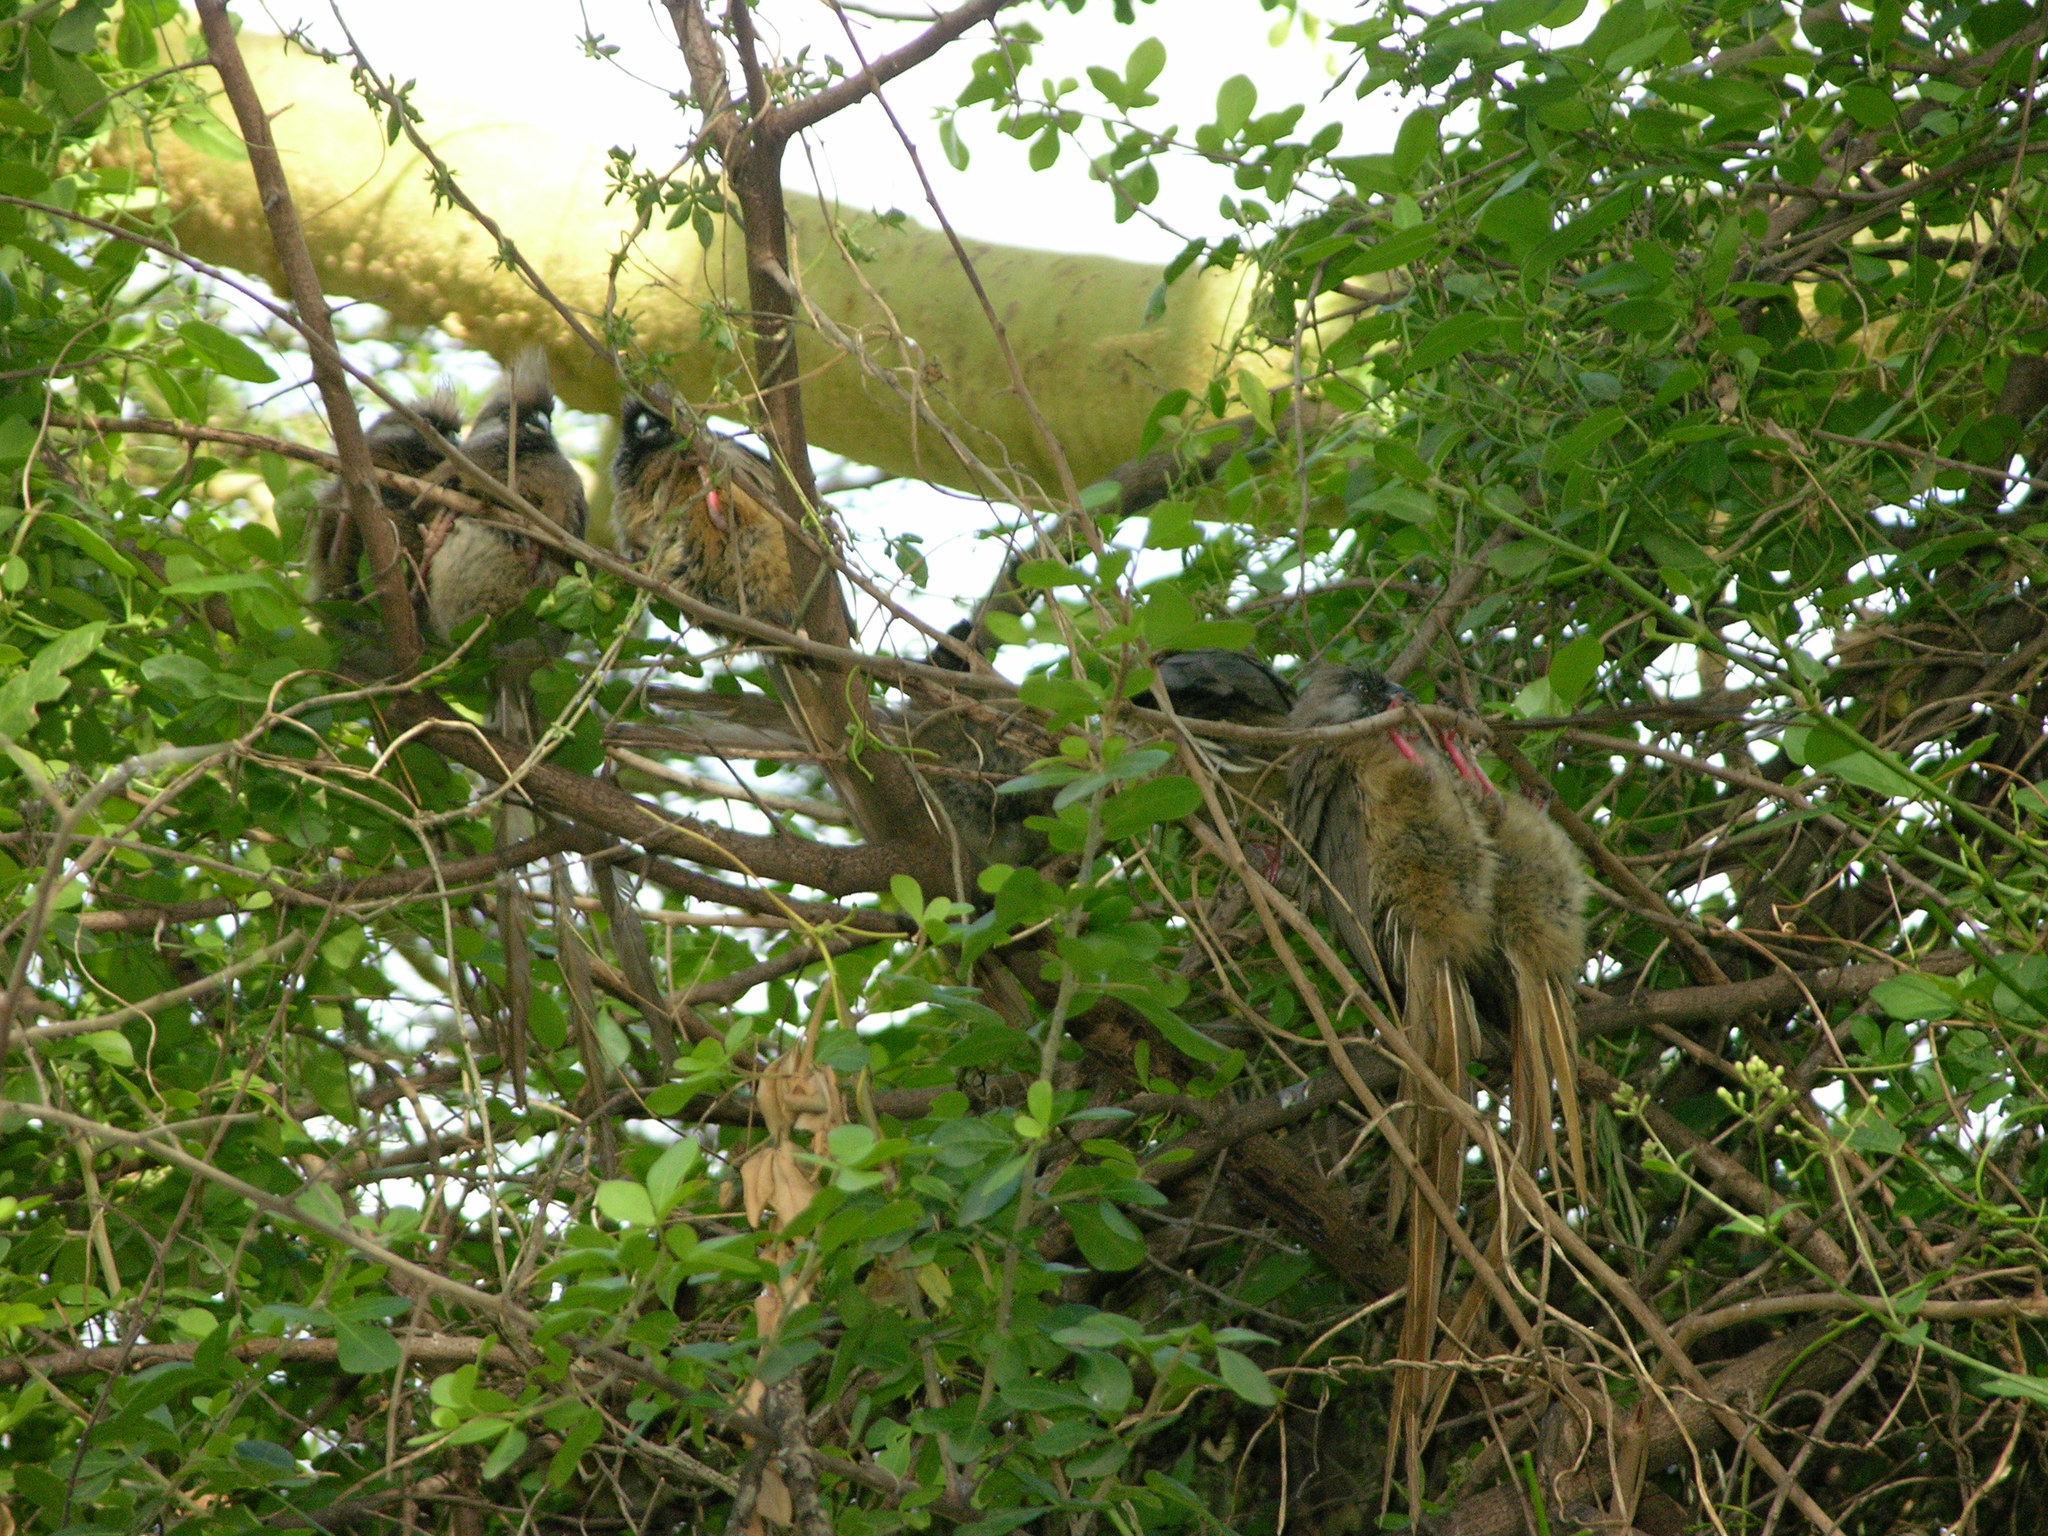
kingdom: Animalia
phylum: Chordata
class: Aves
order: Coliiformes
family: Coliidae
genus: Colius
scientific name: Colius striatus
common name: Speckled mousebird
